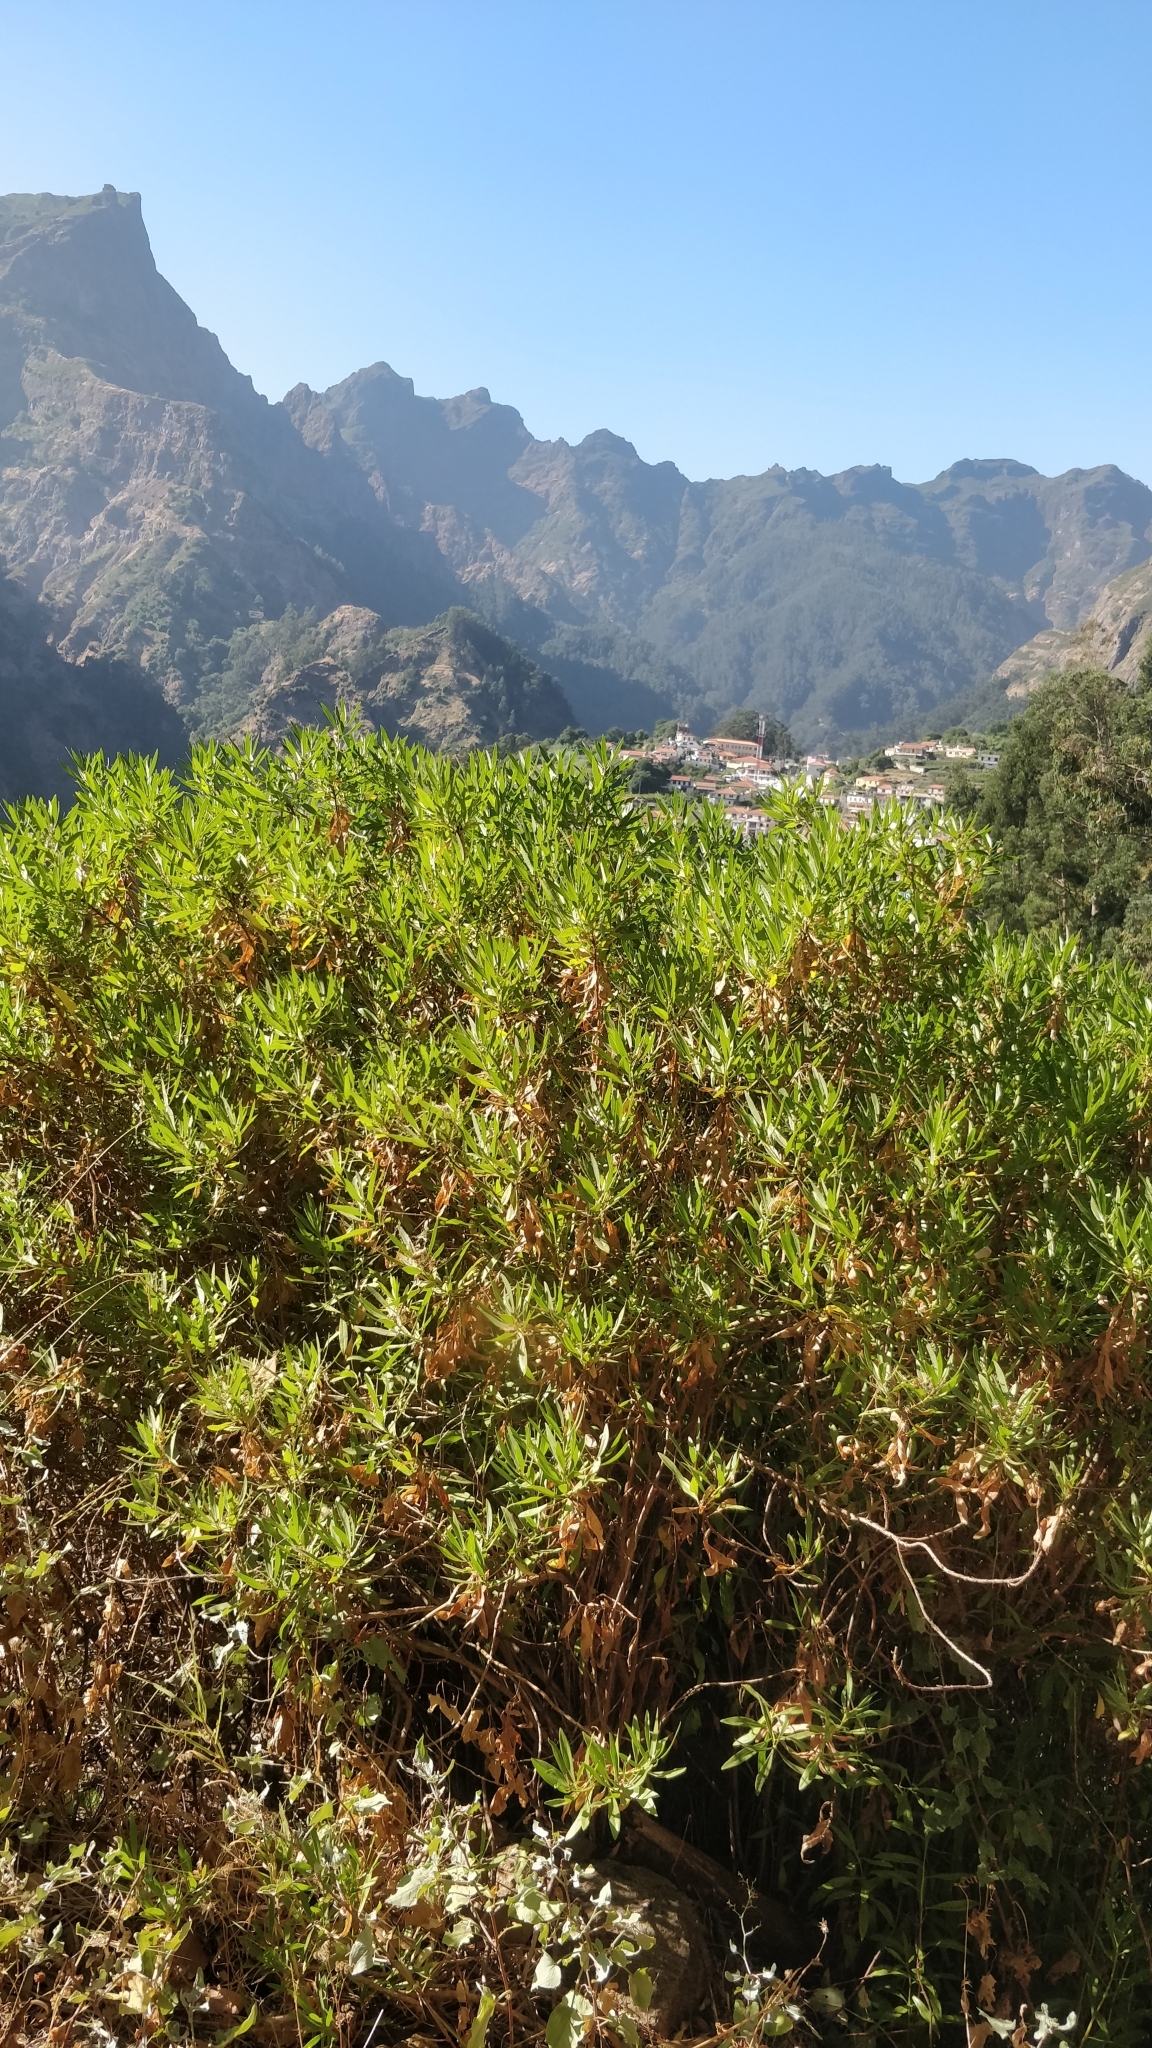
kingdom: Plantae
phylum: Tracheophyta
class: Magnoliopsida
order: Lamiales
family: Plantaginaceae
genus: Globularia
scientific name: Globularia salicina
